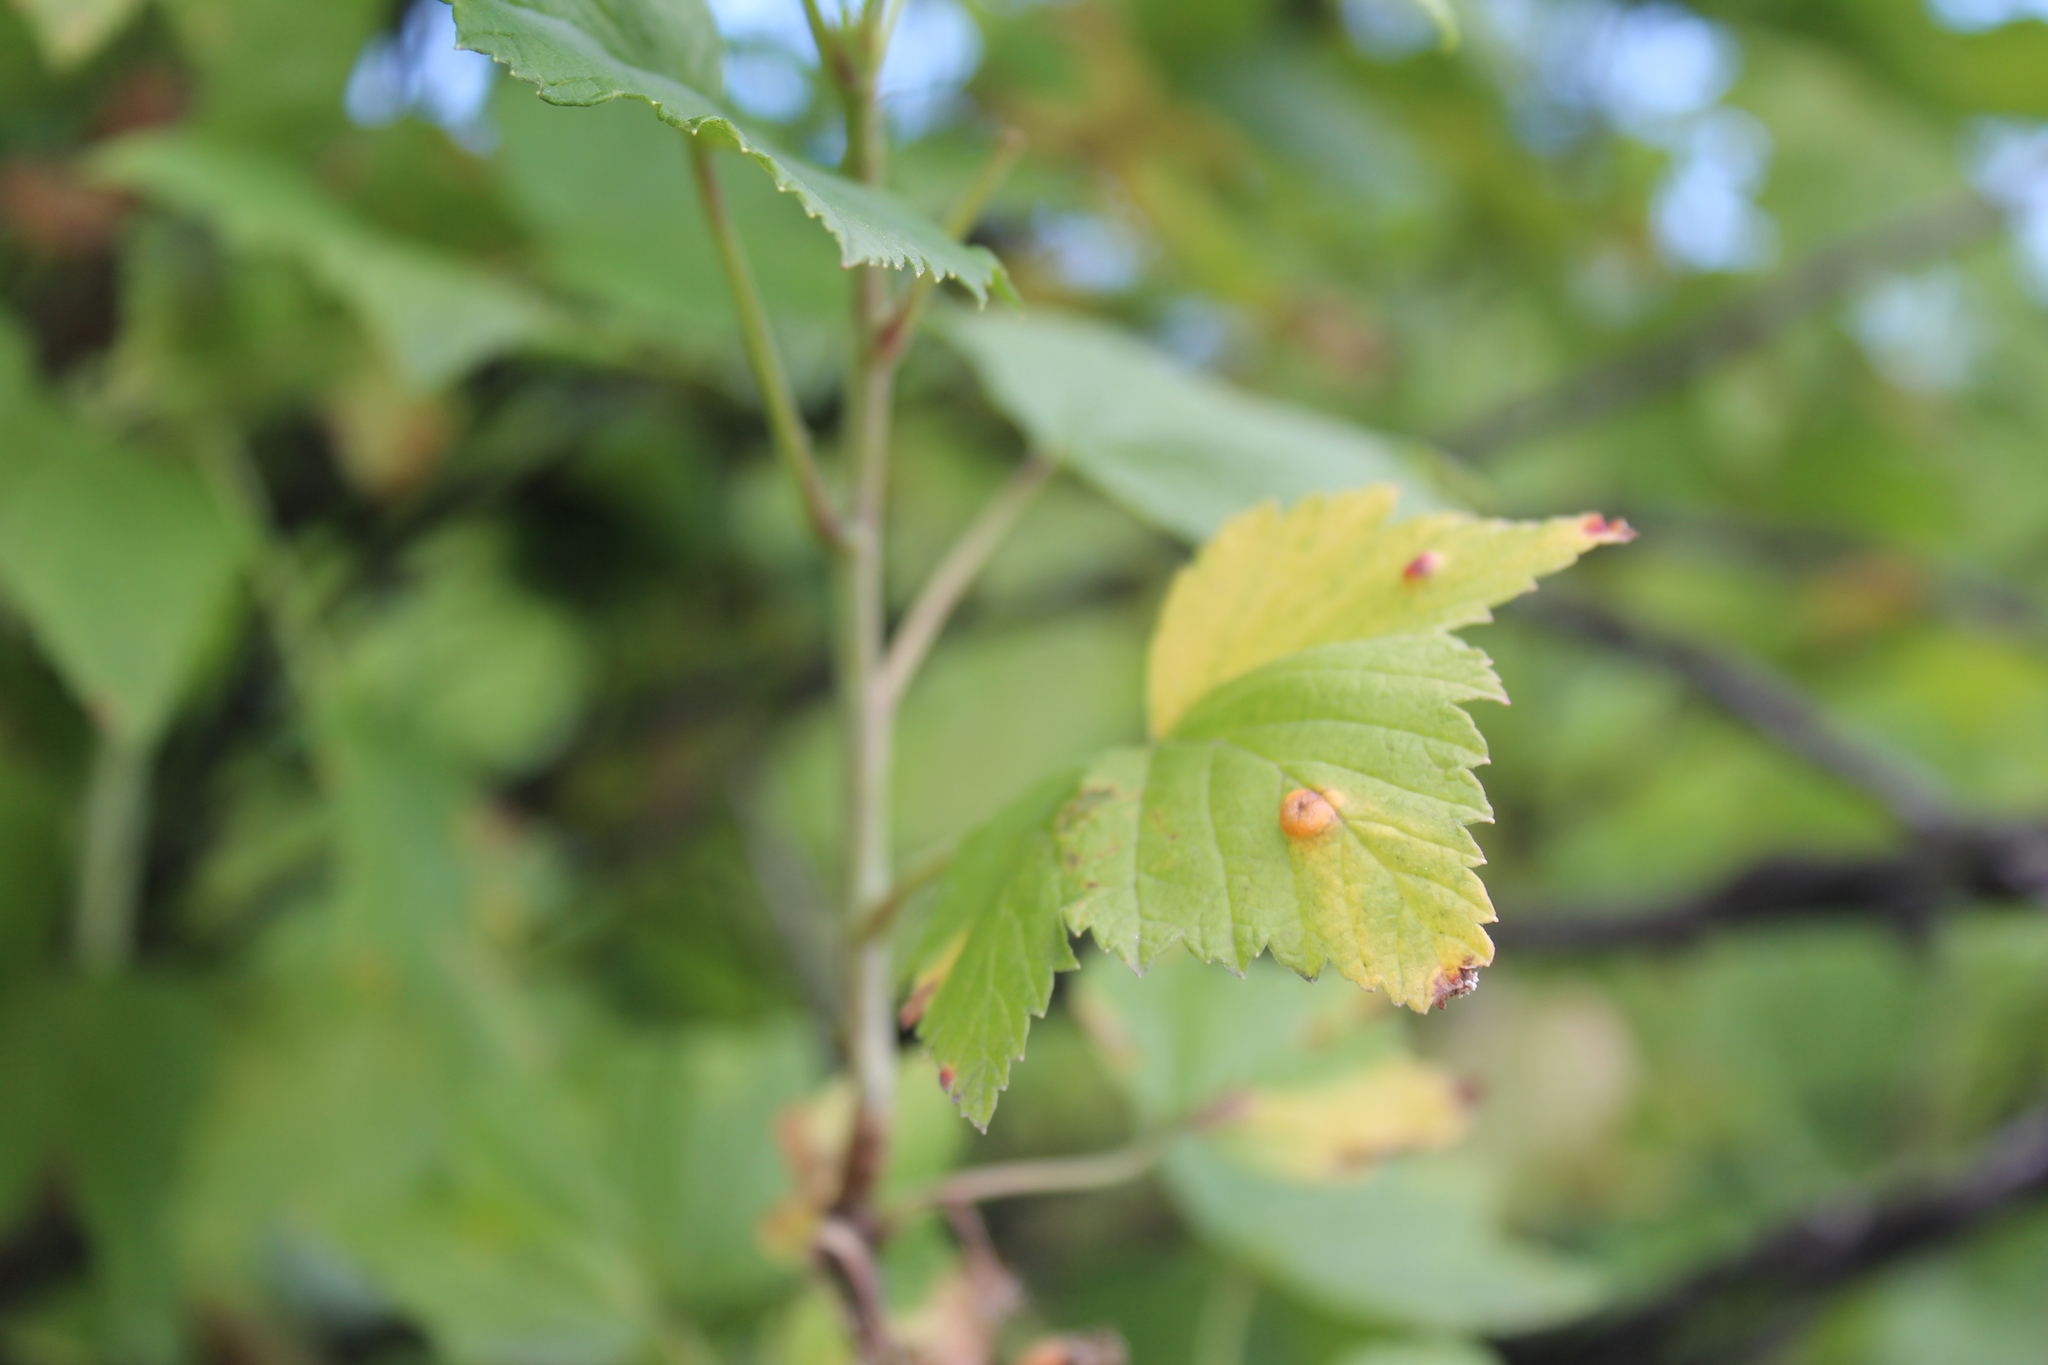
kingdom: Plantae
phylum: Tracheophyta
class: Magnoliopsida
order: Saxifragales
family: Grossulariaceae
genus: Ribes
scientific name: Ribes nigrum
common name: Black currant
